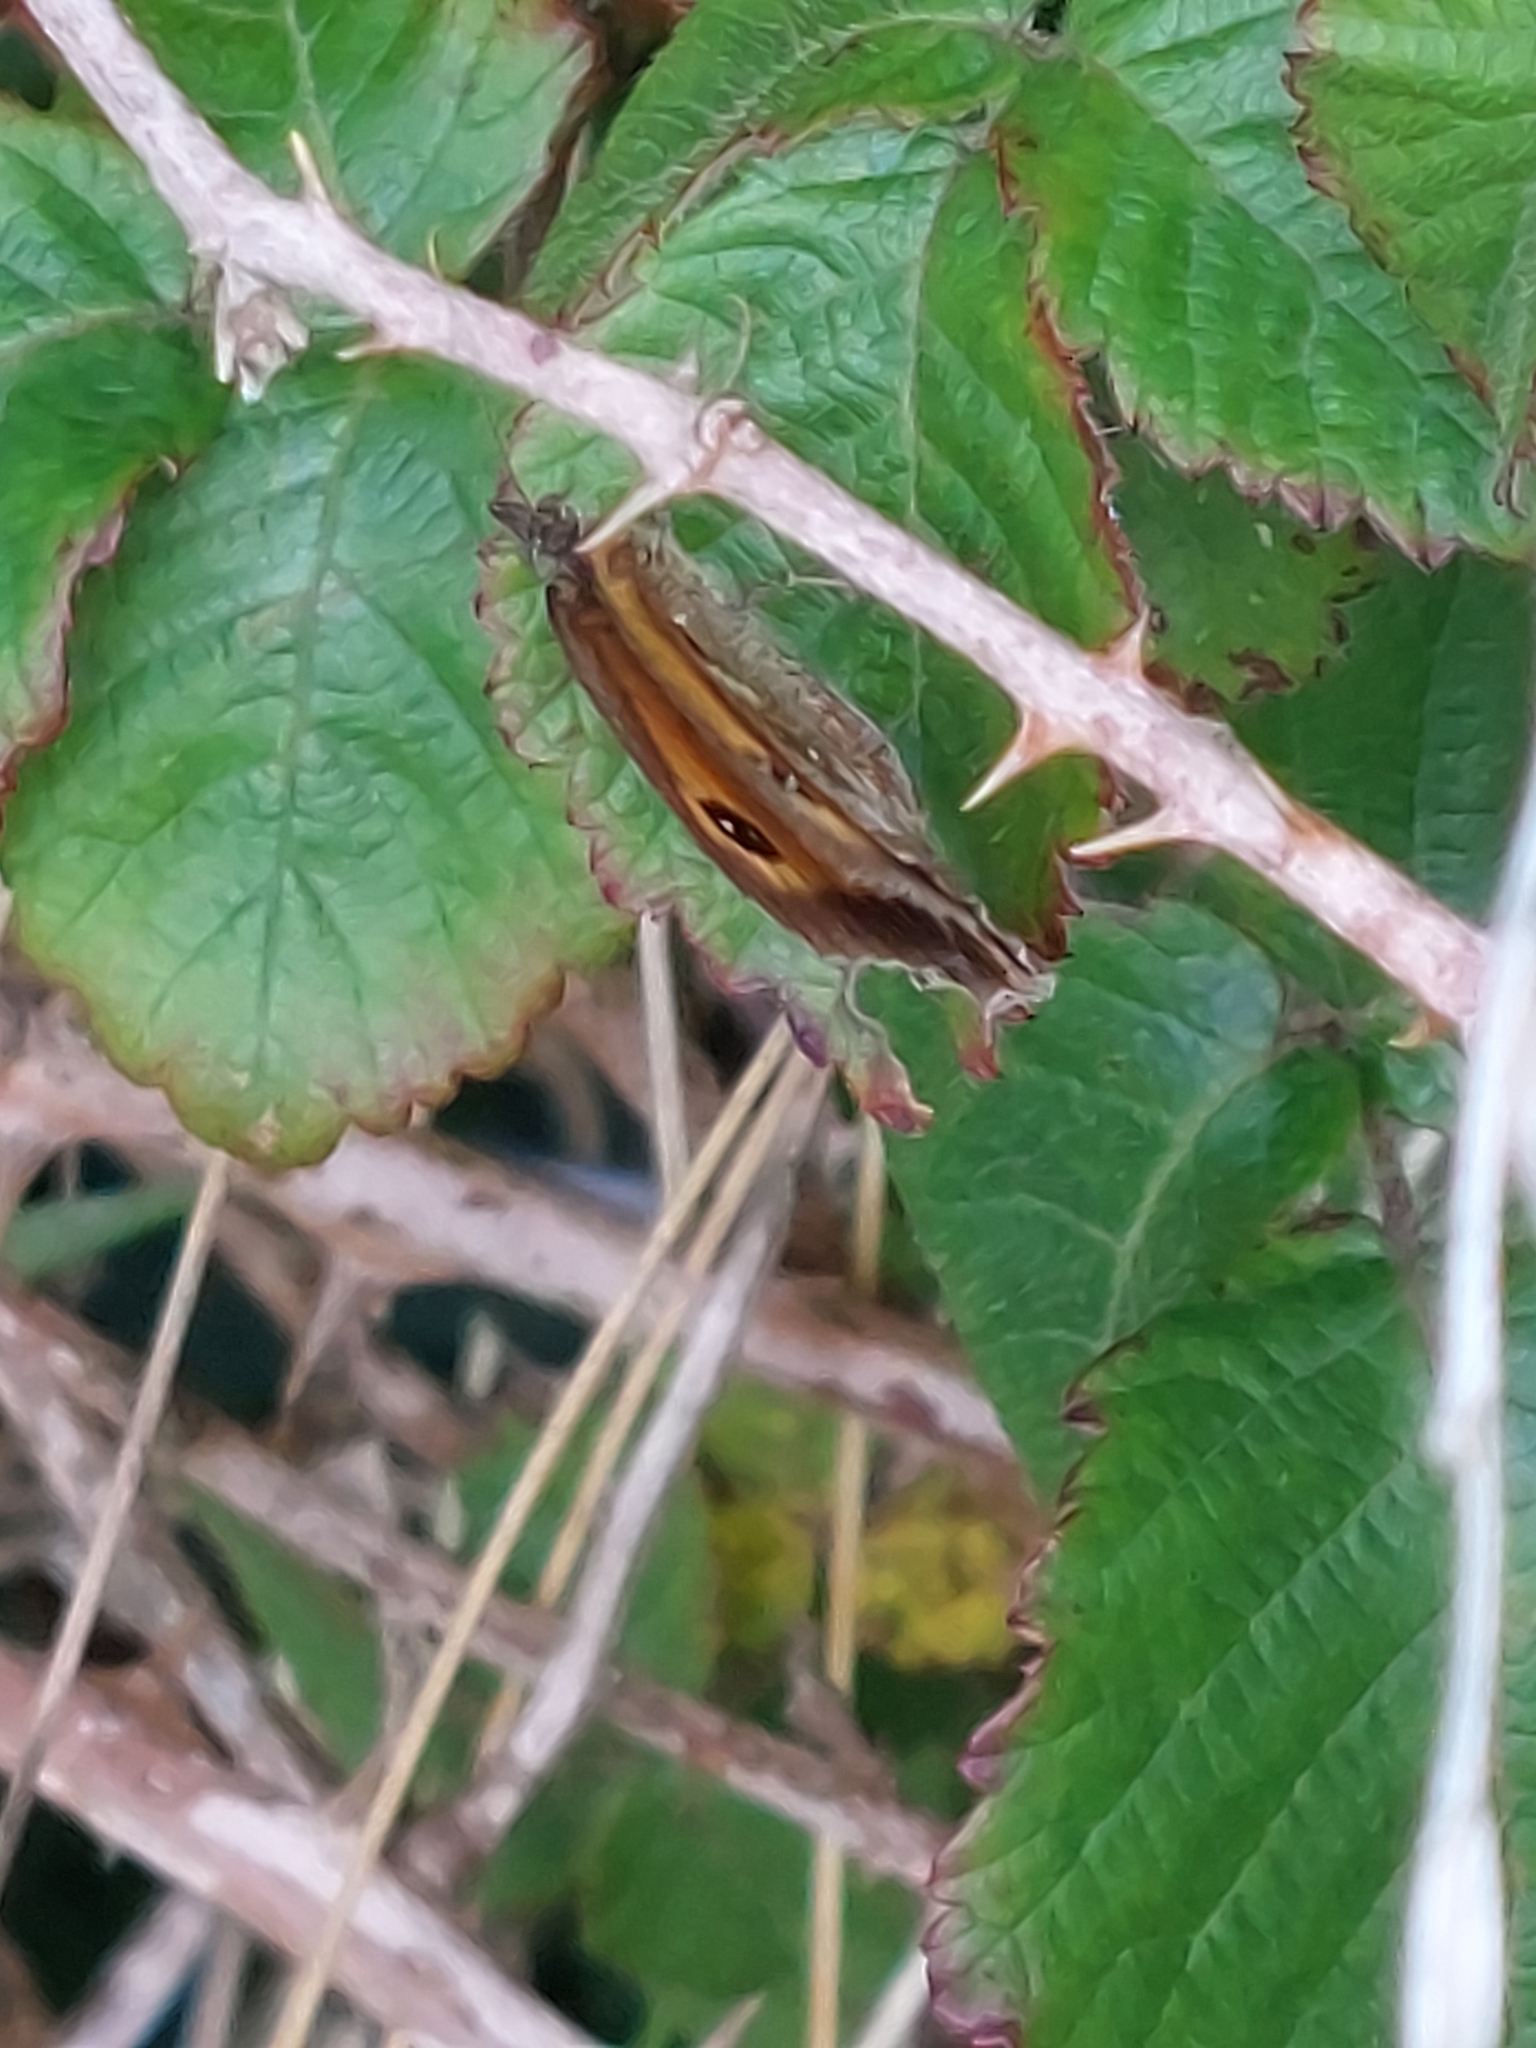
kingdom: Animalia
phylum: Arthropoda
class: Insecta
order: Lepidoptera
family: Nymphalidae
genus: Pyronia
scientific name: Pyronia tithonus
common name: Gatekeeper
